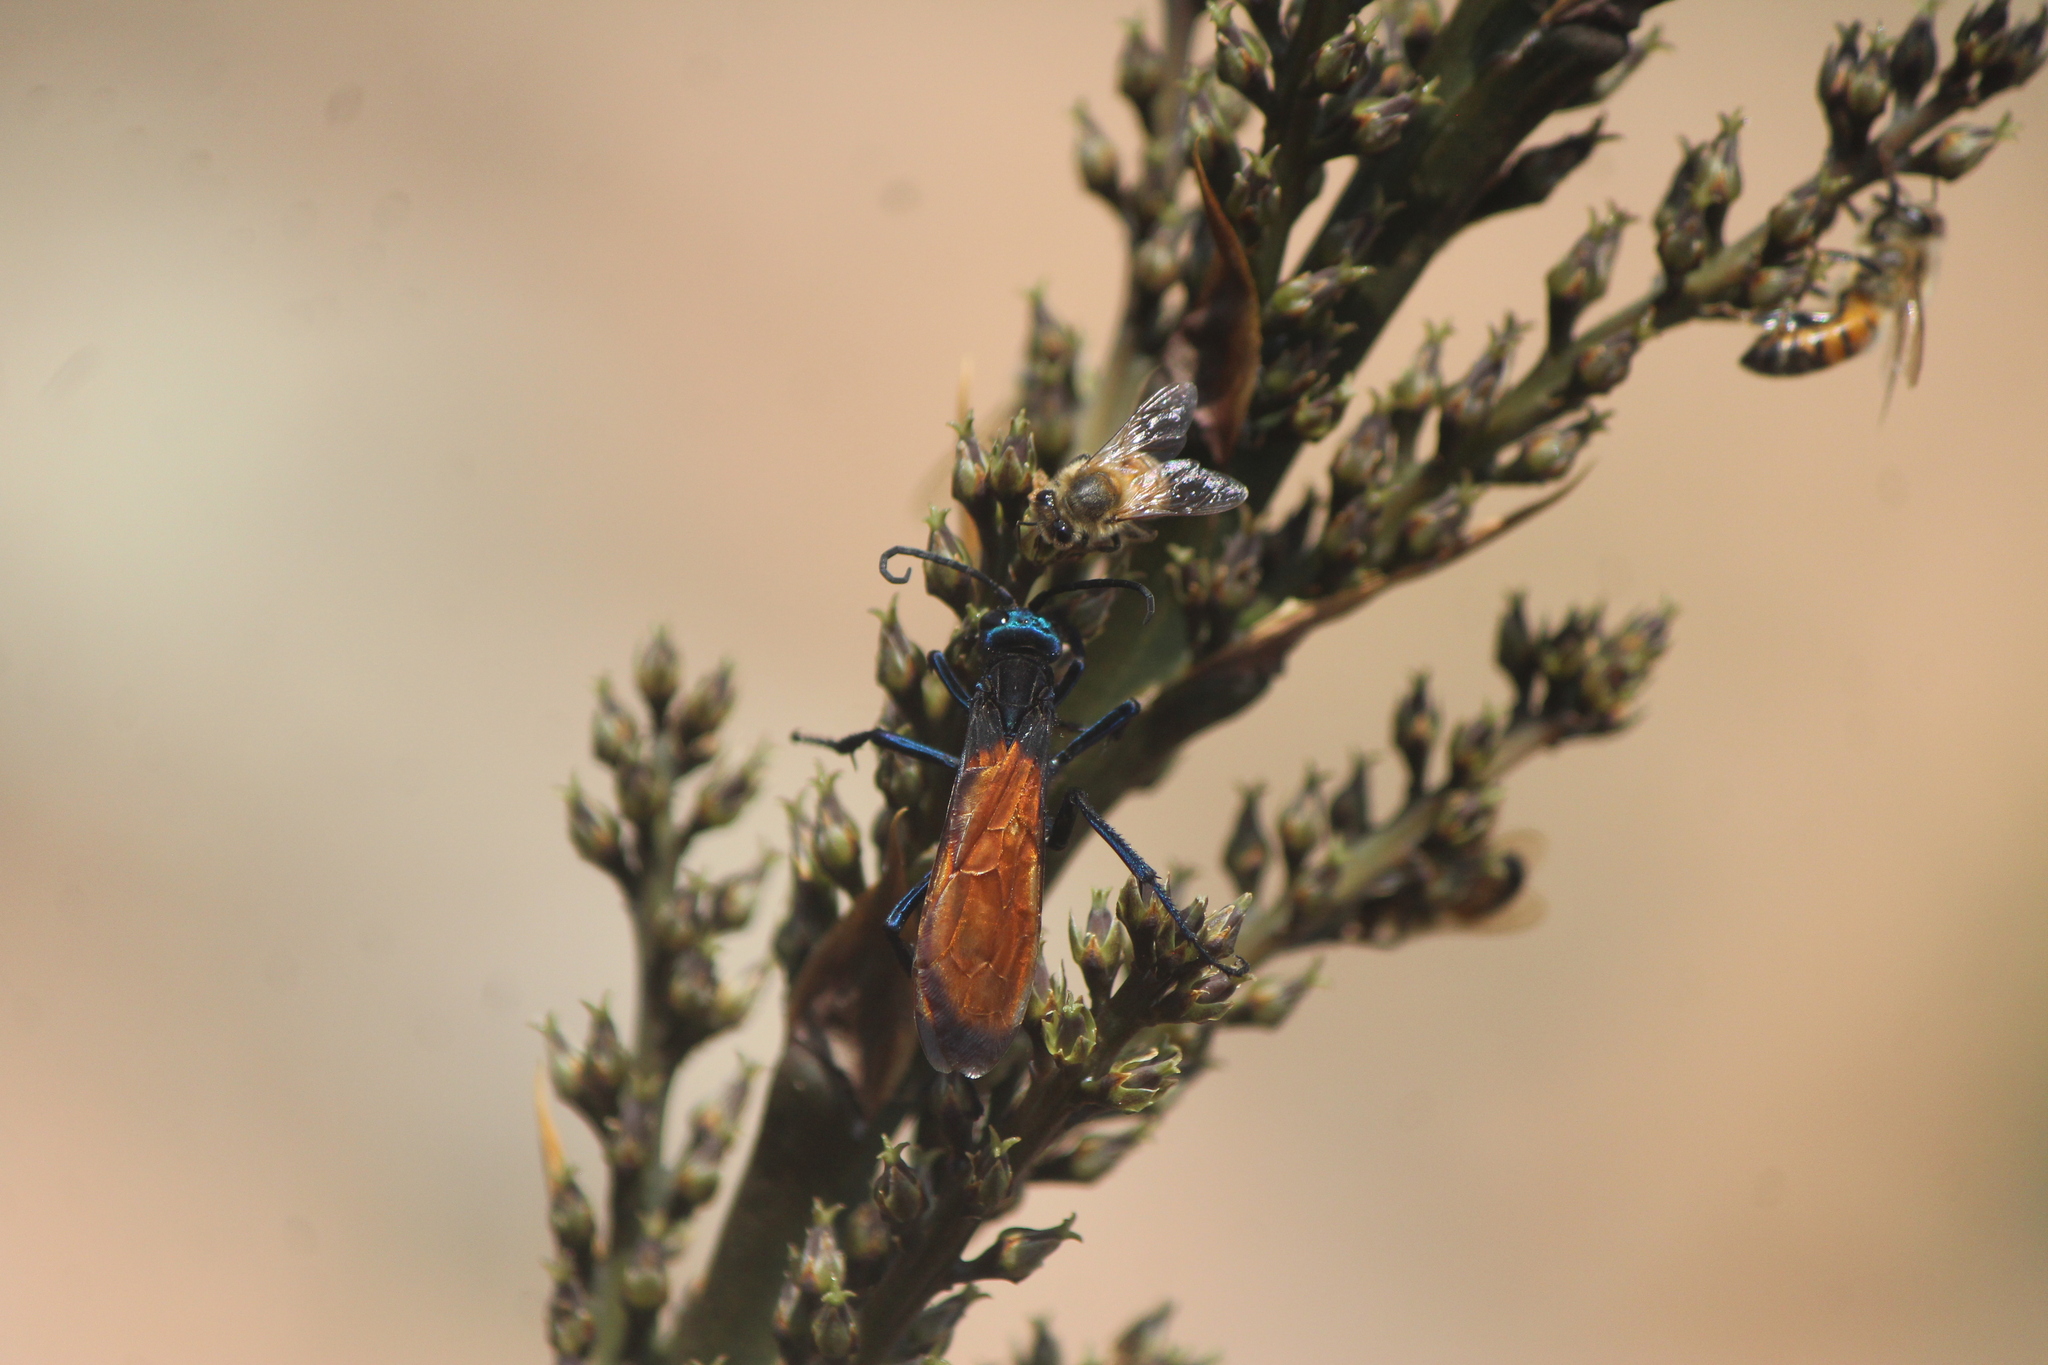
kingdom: Animalia
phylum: Arthropoda
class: Insecta
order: Hymenoptera
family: Apidae
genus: Apis
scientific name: Apis mellifera
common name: Honey bee
